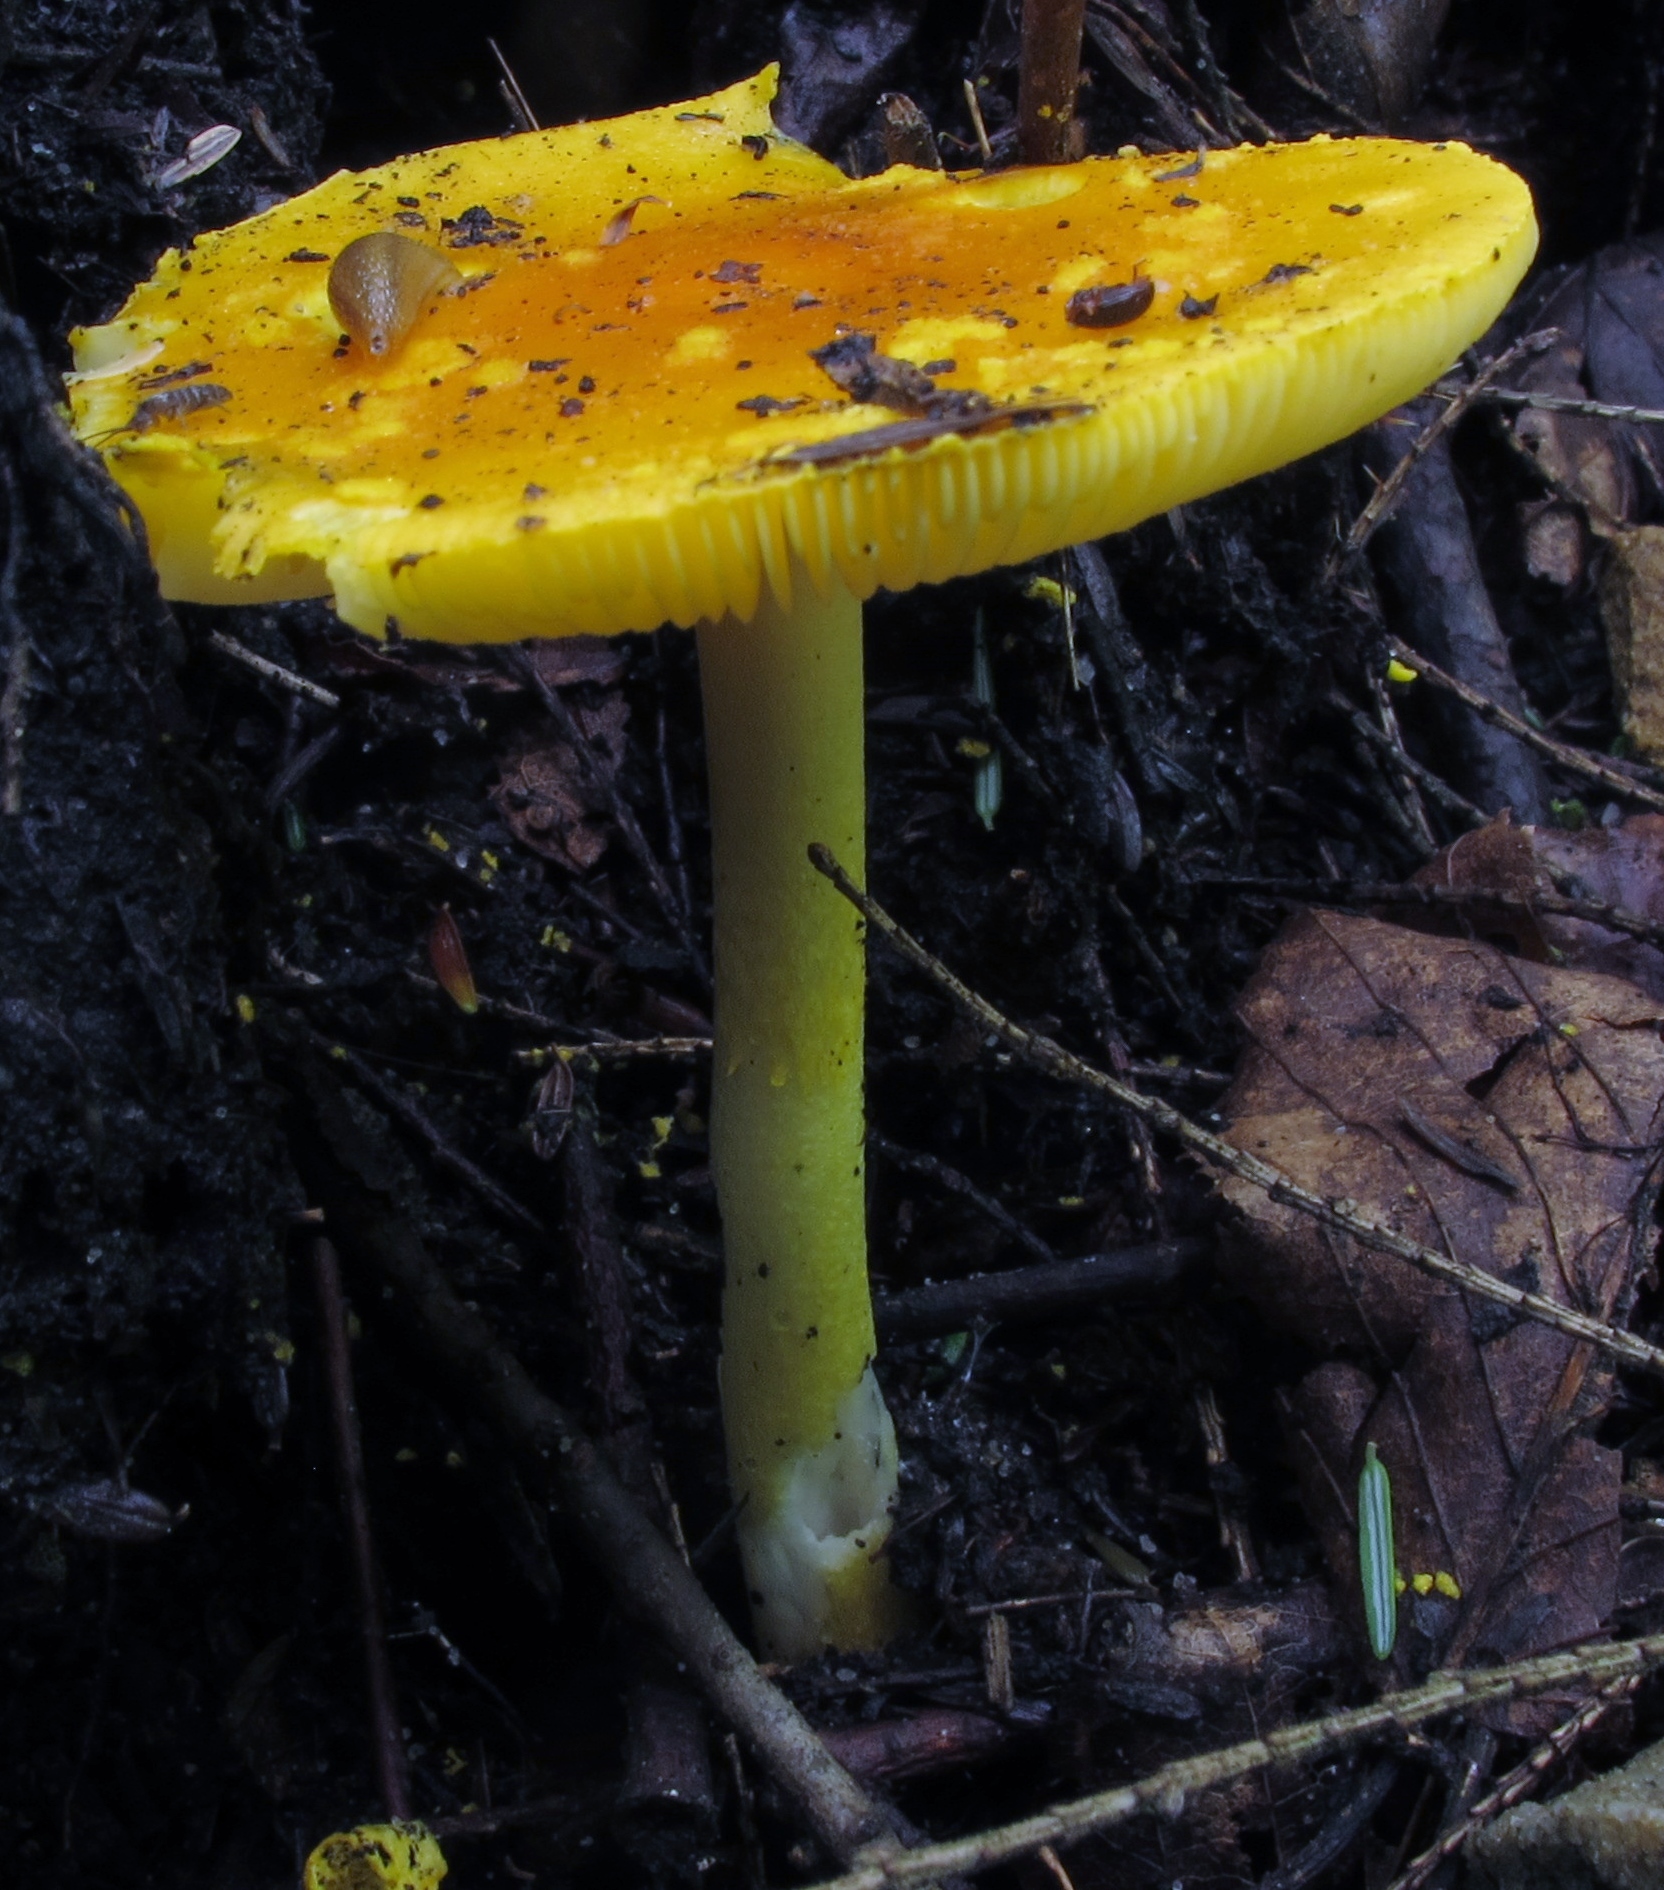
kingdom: Fungi
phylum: Basidiomycota
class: Agaricomycetes
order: Agaricales
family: Amanitaceae
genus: Amanita
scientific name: Amanita flavoconia
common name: Yellow patches
